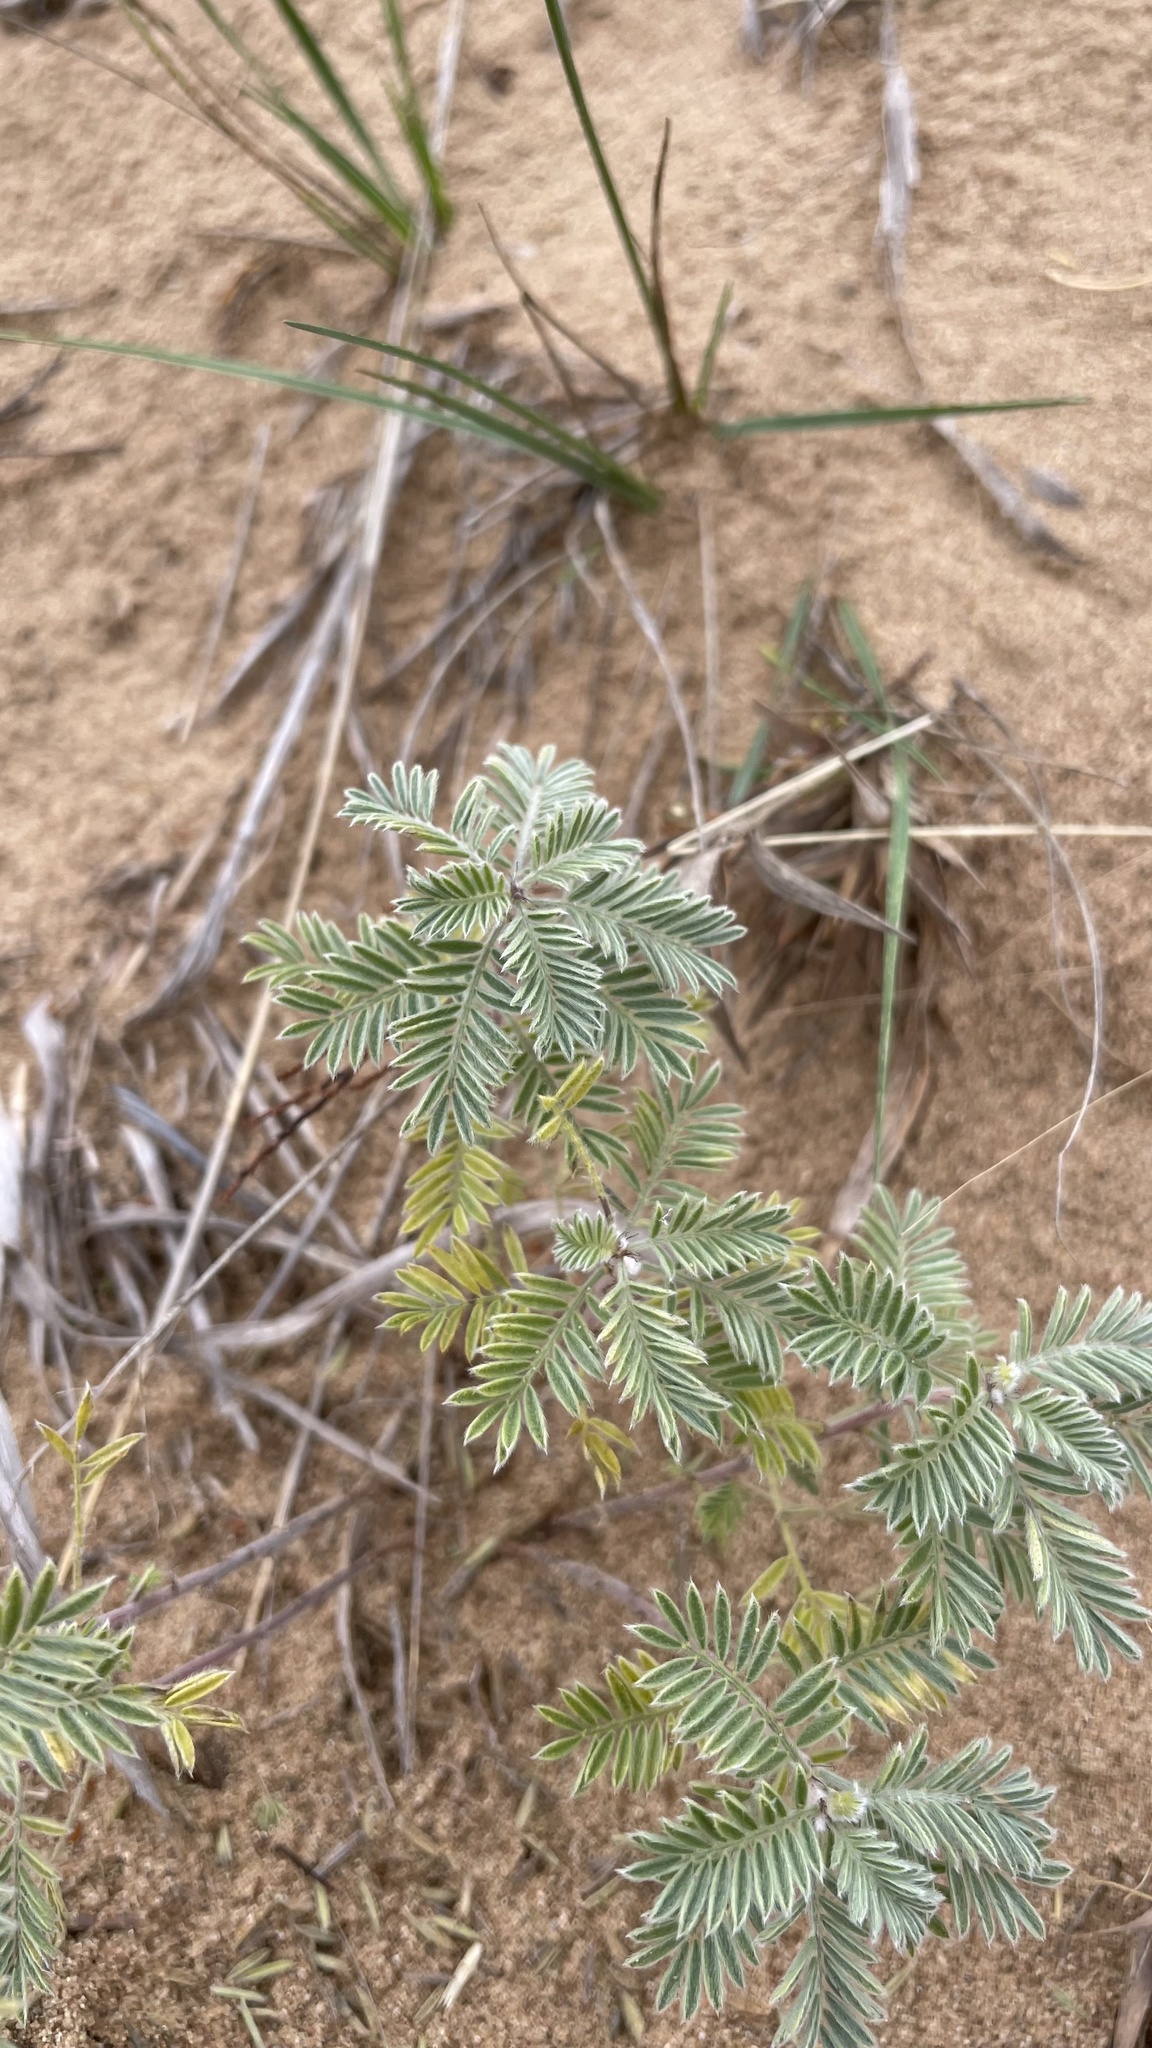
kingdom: Plantae
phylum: Tracheophyta
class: Magnoliopsida
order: Fabales
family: Fabaceae
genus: Dalea
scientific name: Dalea villosa
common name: Silky prairie-clover
